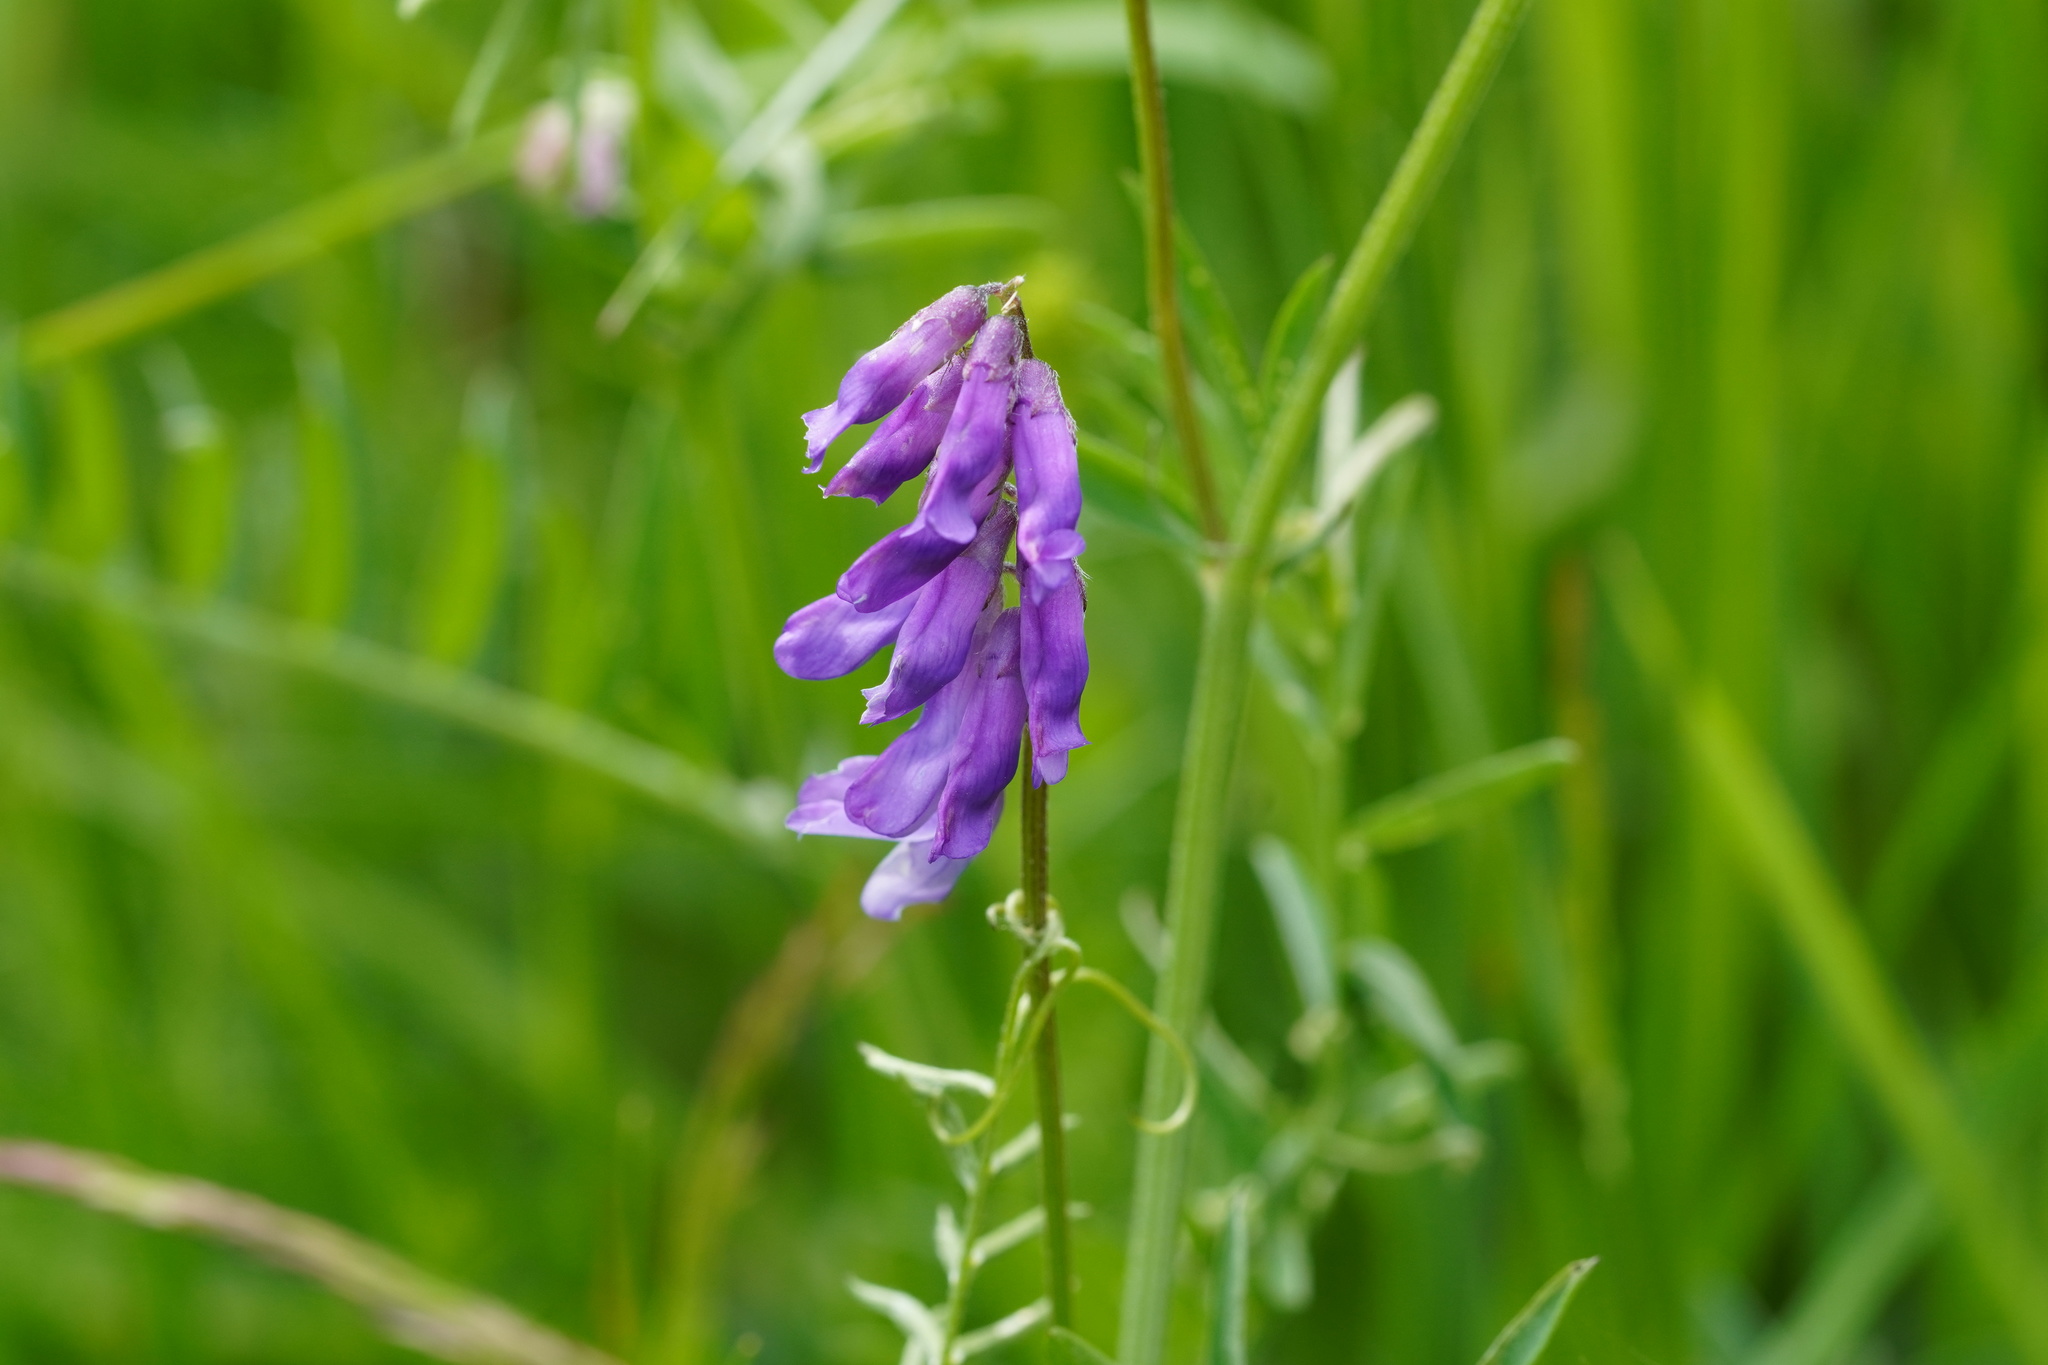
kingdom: Plantae
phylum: Tracheophyta
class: Magnoliopsida
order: Fabales
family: Fabaceae
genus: Vicia
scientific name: Vicia cracca
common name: Bird vetch
